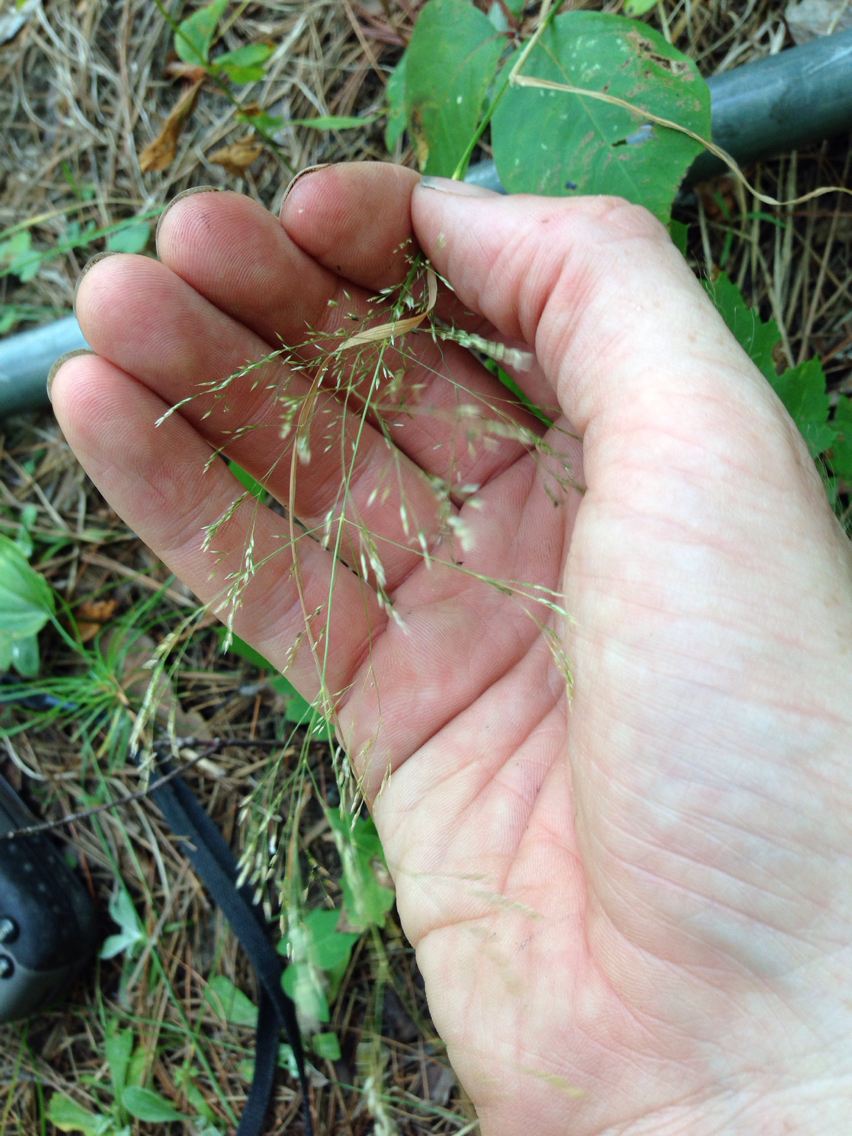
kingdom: Plantae
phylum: Tracheophyta
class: Liliopsida
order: Poales
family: Poaceae
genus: Poa
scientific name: Poa palustris
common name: Swamp meadow-grass
